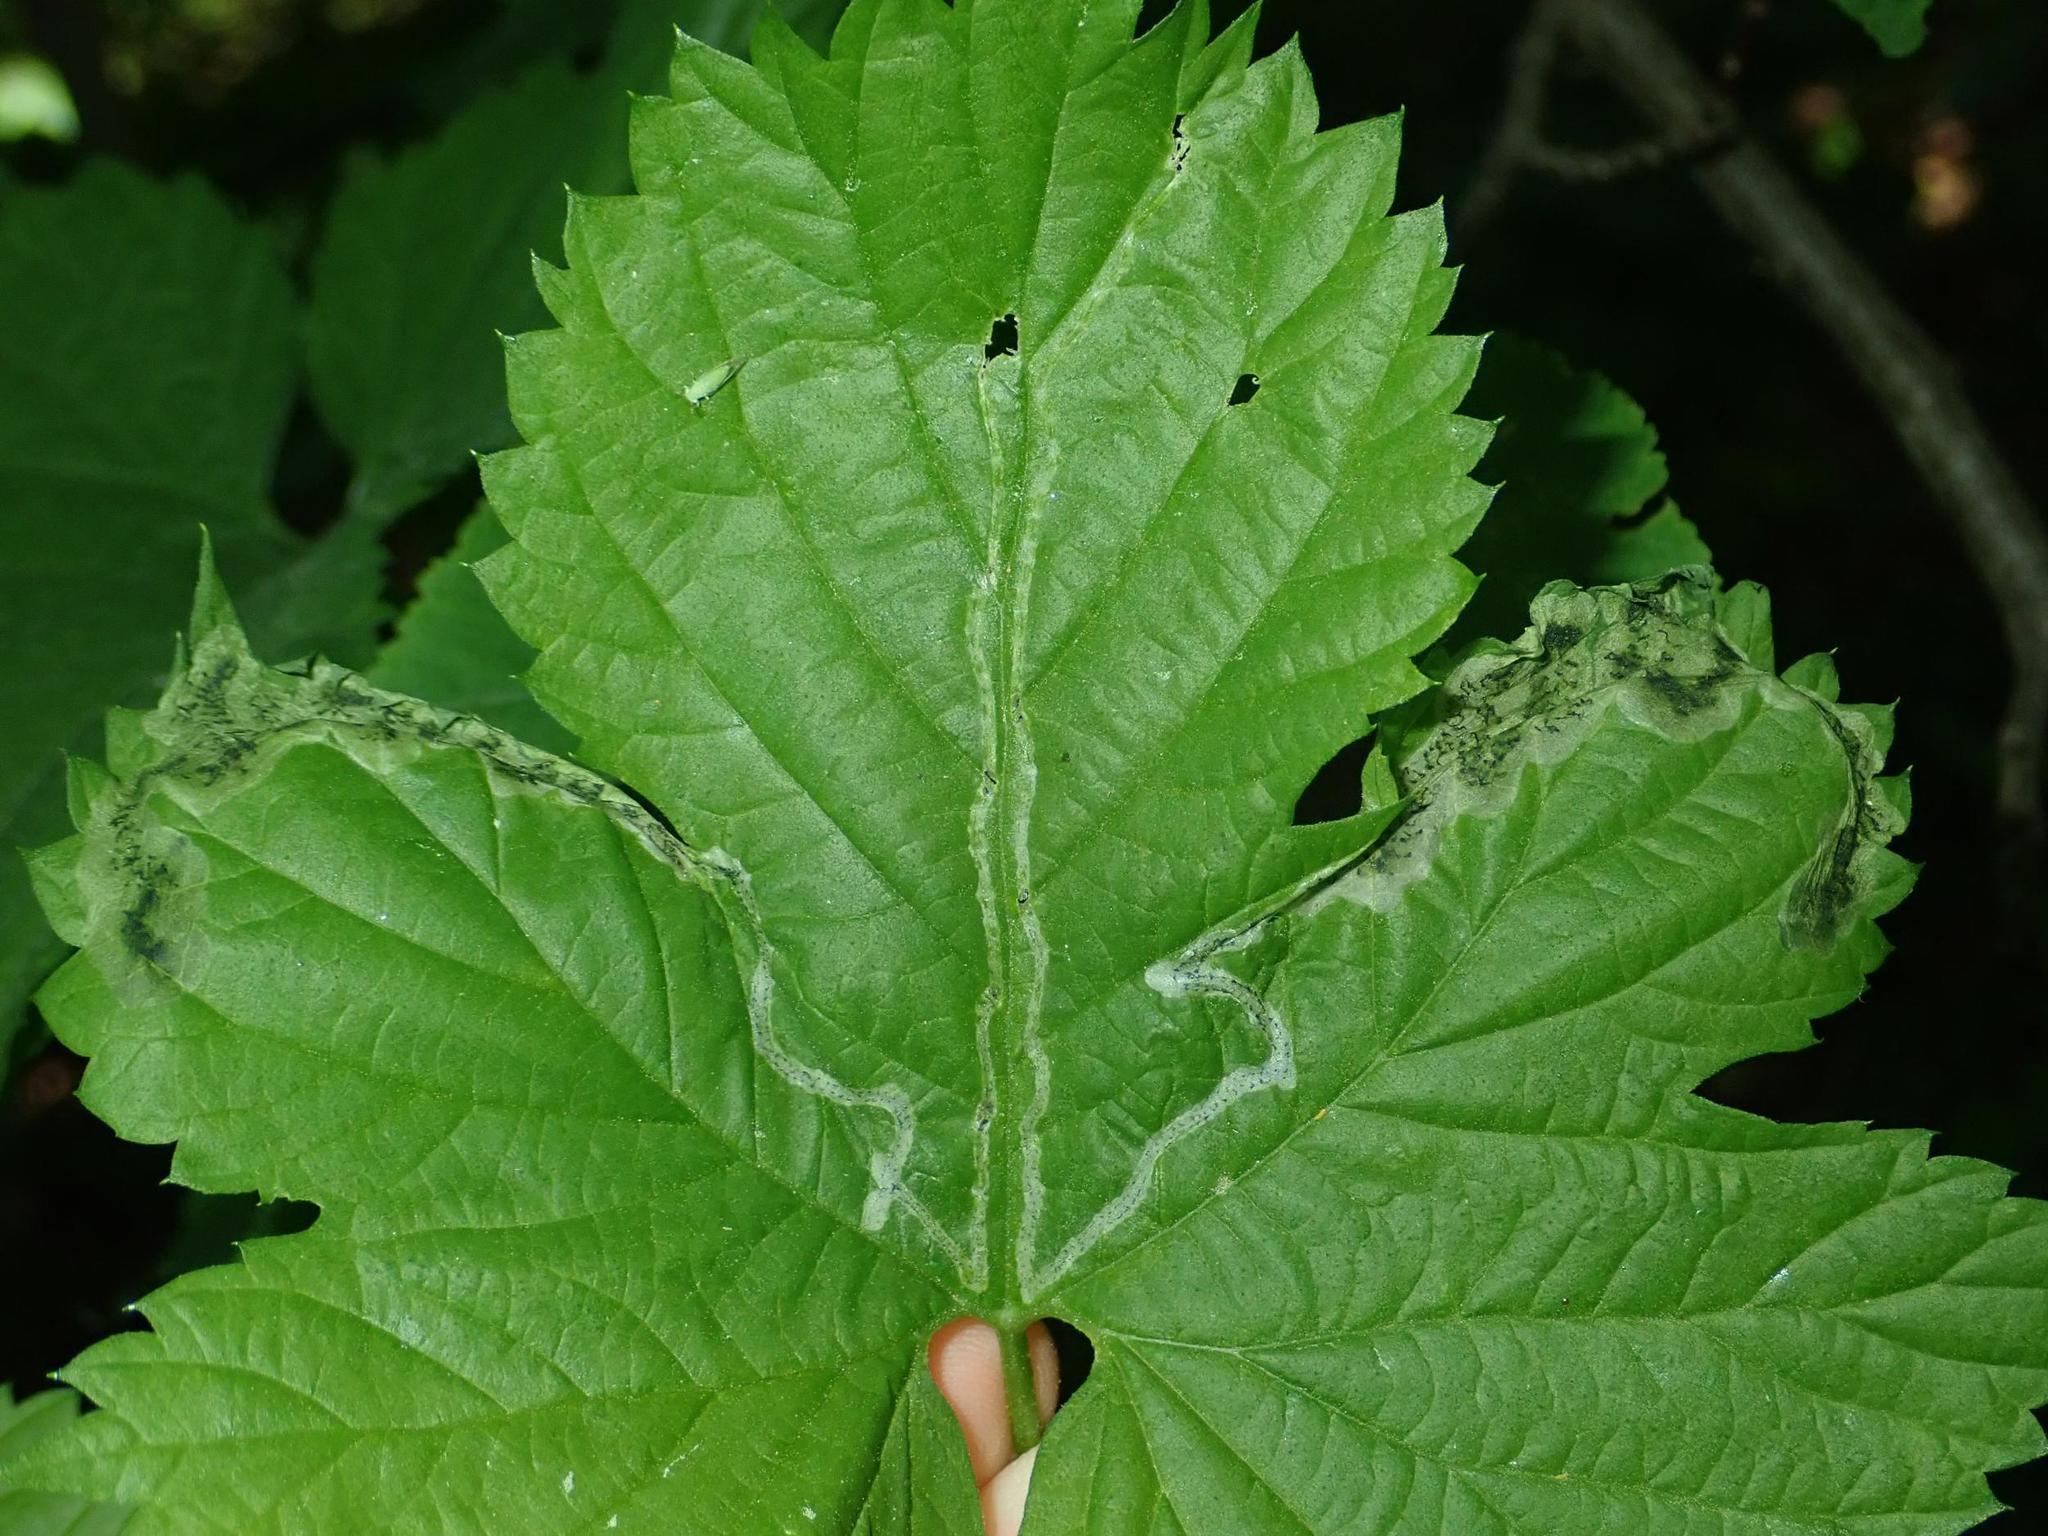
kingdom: Animalia
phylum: Arthropoda
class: Insecta
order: Diptera
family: Agromyzidae
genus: Agromyza
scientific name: Agromyza igniceps
